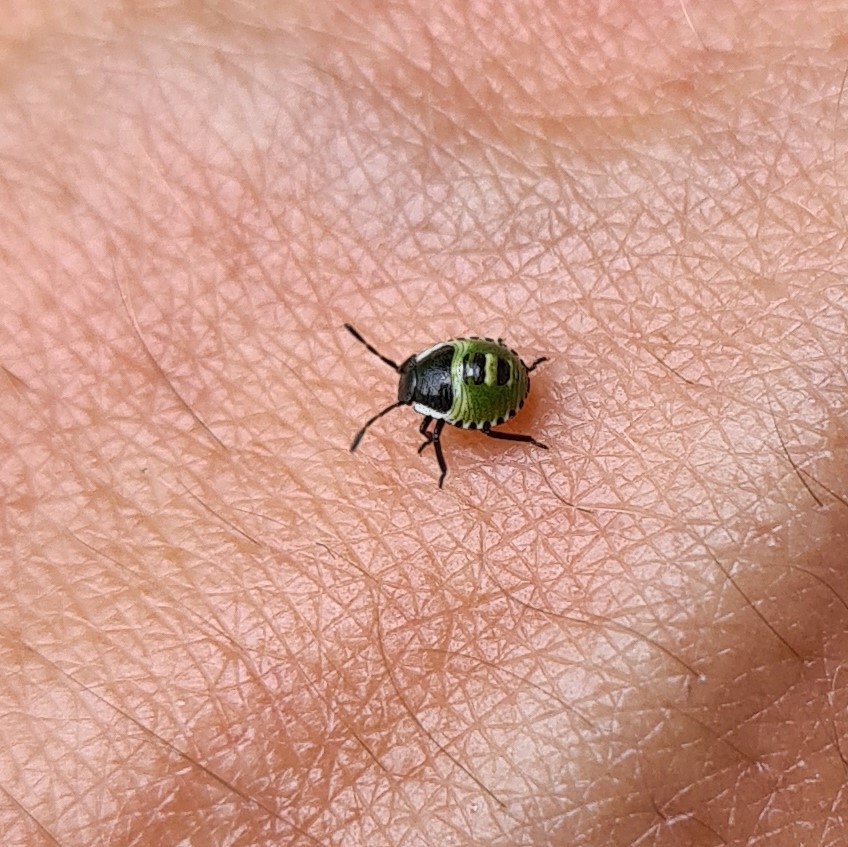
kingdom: Animalia
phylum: Arthropoda
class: Insecta
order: Hemiptera
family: Pentatomidae
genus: Palomena
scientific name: Palomena prasina
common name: Green shieldbug
